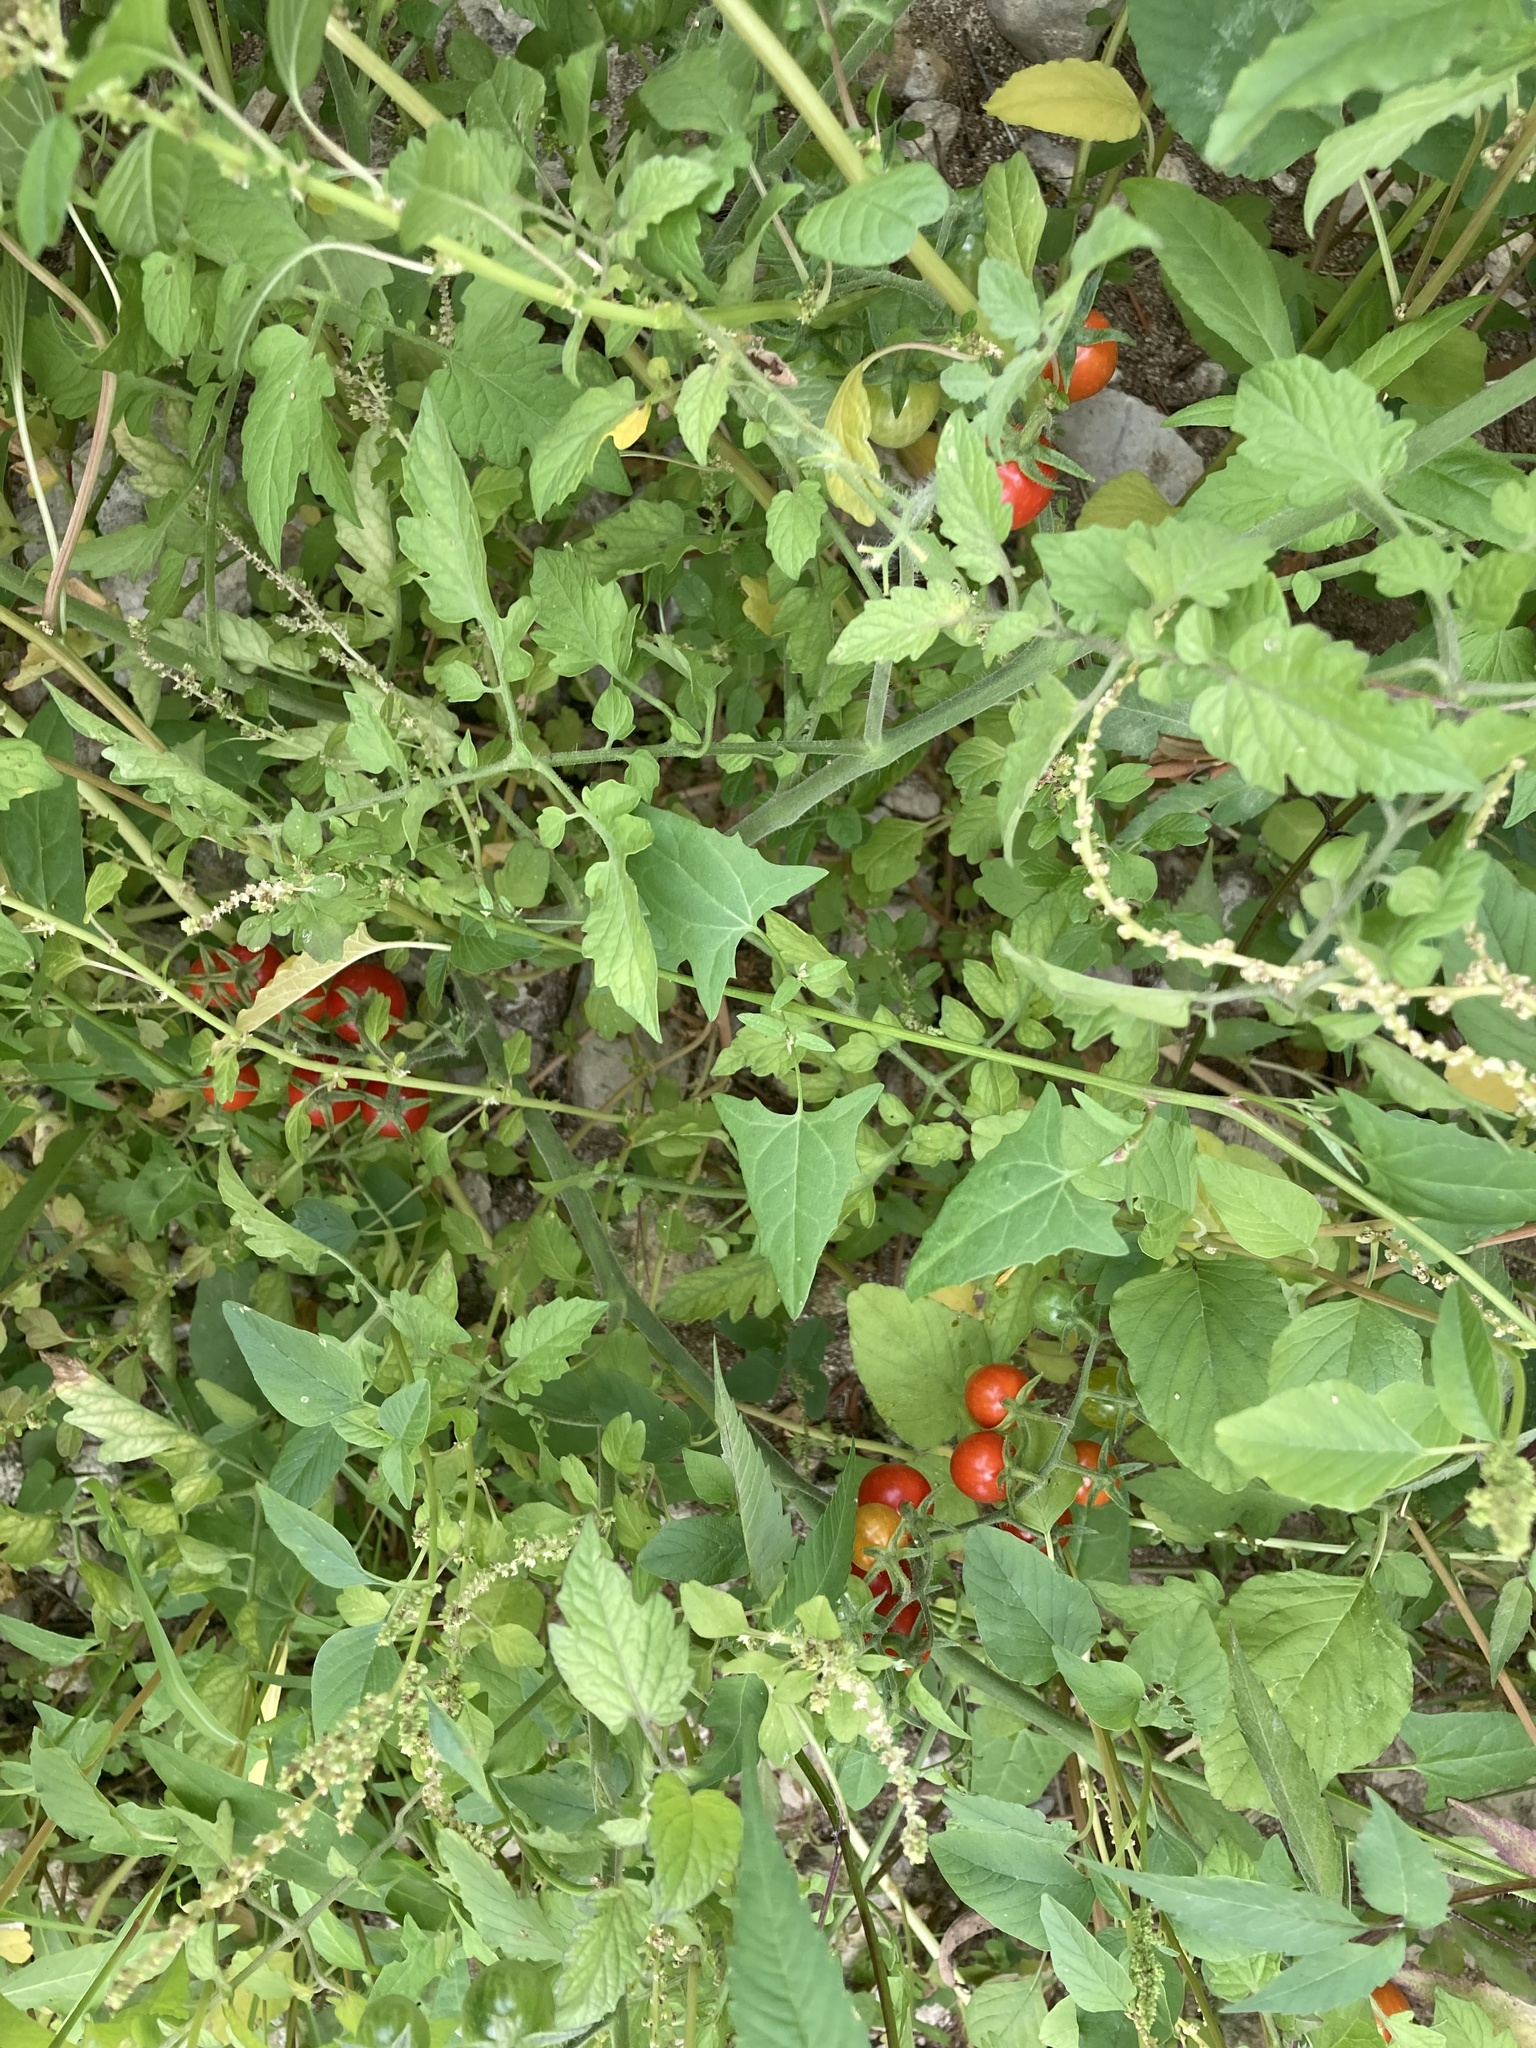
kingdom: Plantae
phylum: Tracheophyta
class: Magnoliopsida
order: Solanales
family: Solanaceae
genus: Solanum
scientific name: Solanum lycopersicum
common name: Garden tomato
